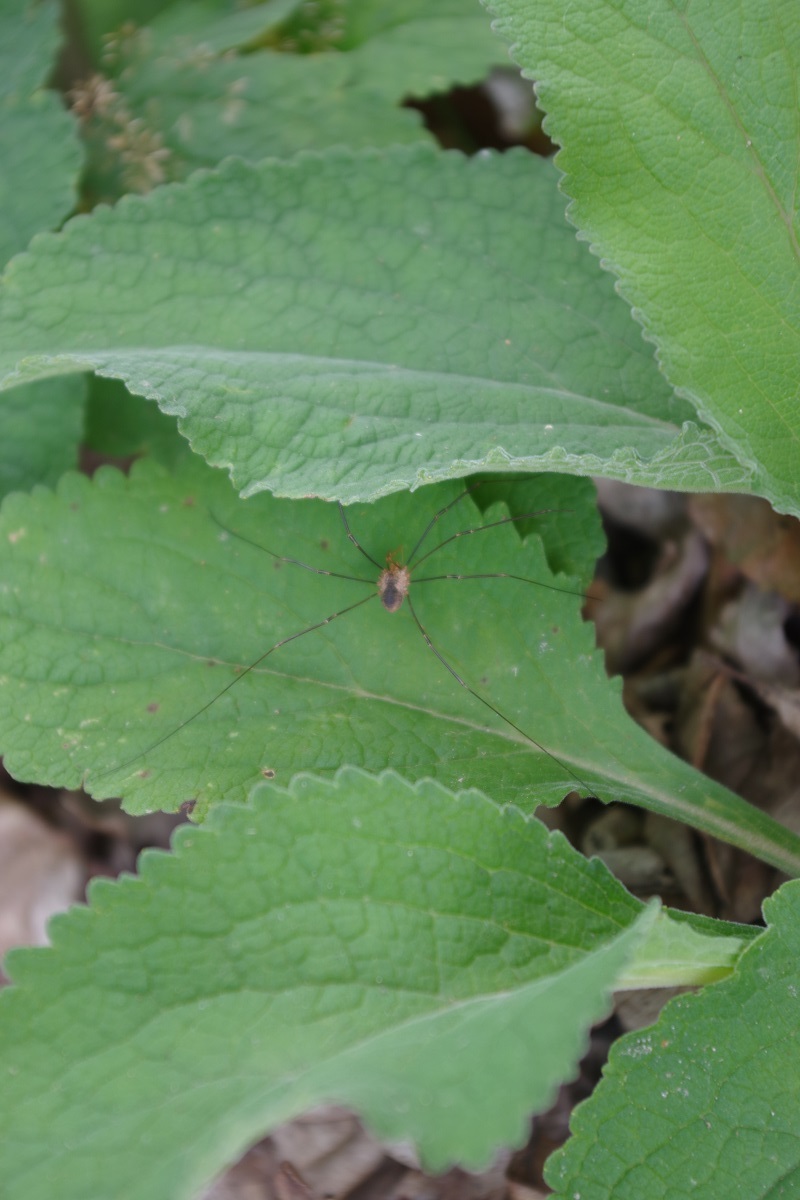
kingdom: Animalia
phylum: Arthropoda
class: Arachnida
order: Opiliones
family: Phalangiidae
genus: Phalangium
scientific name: Phalangium opilio
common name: Daddy longleg
